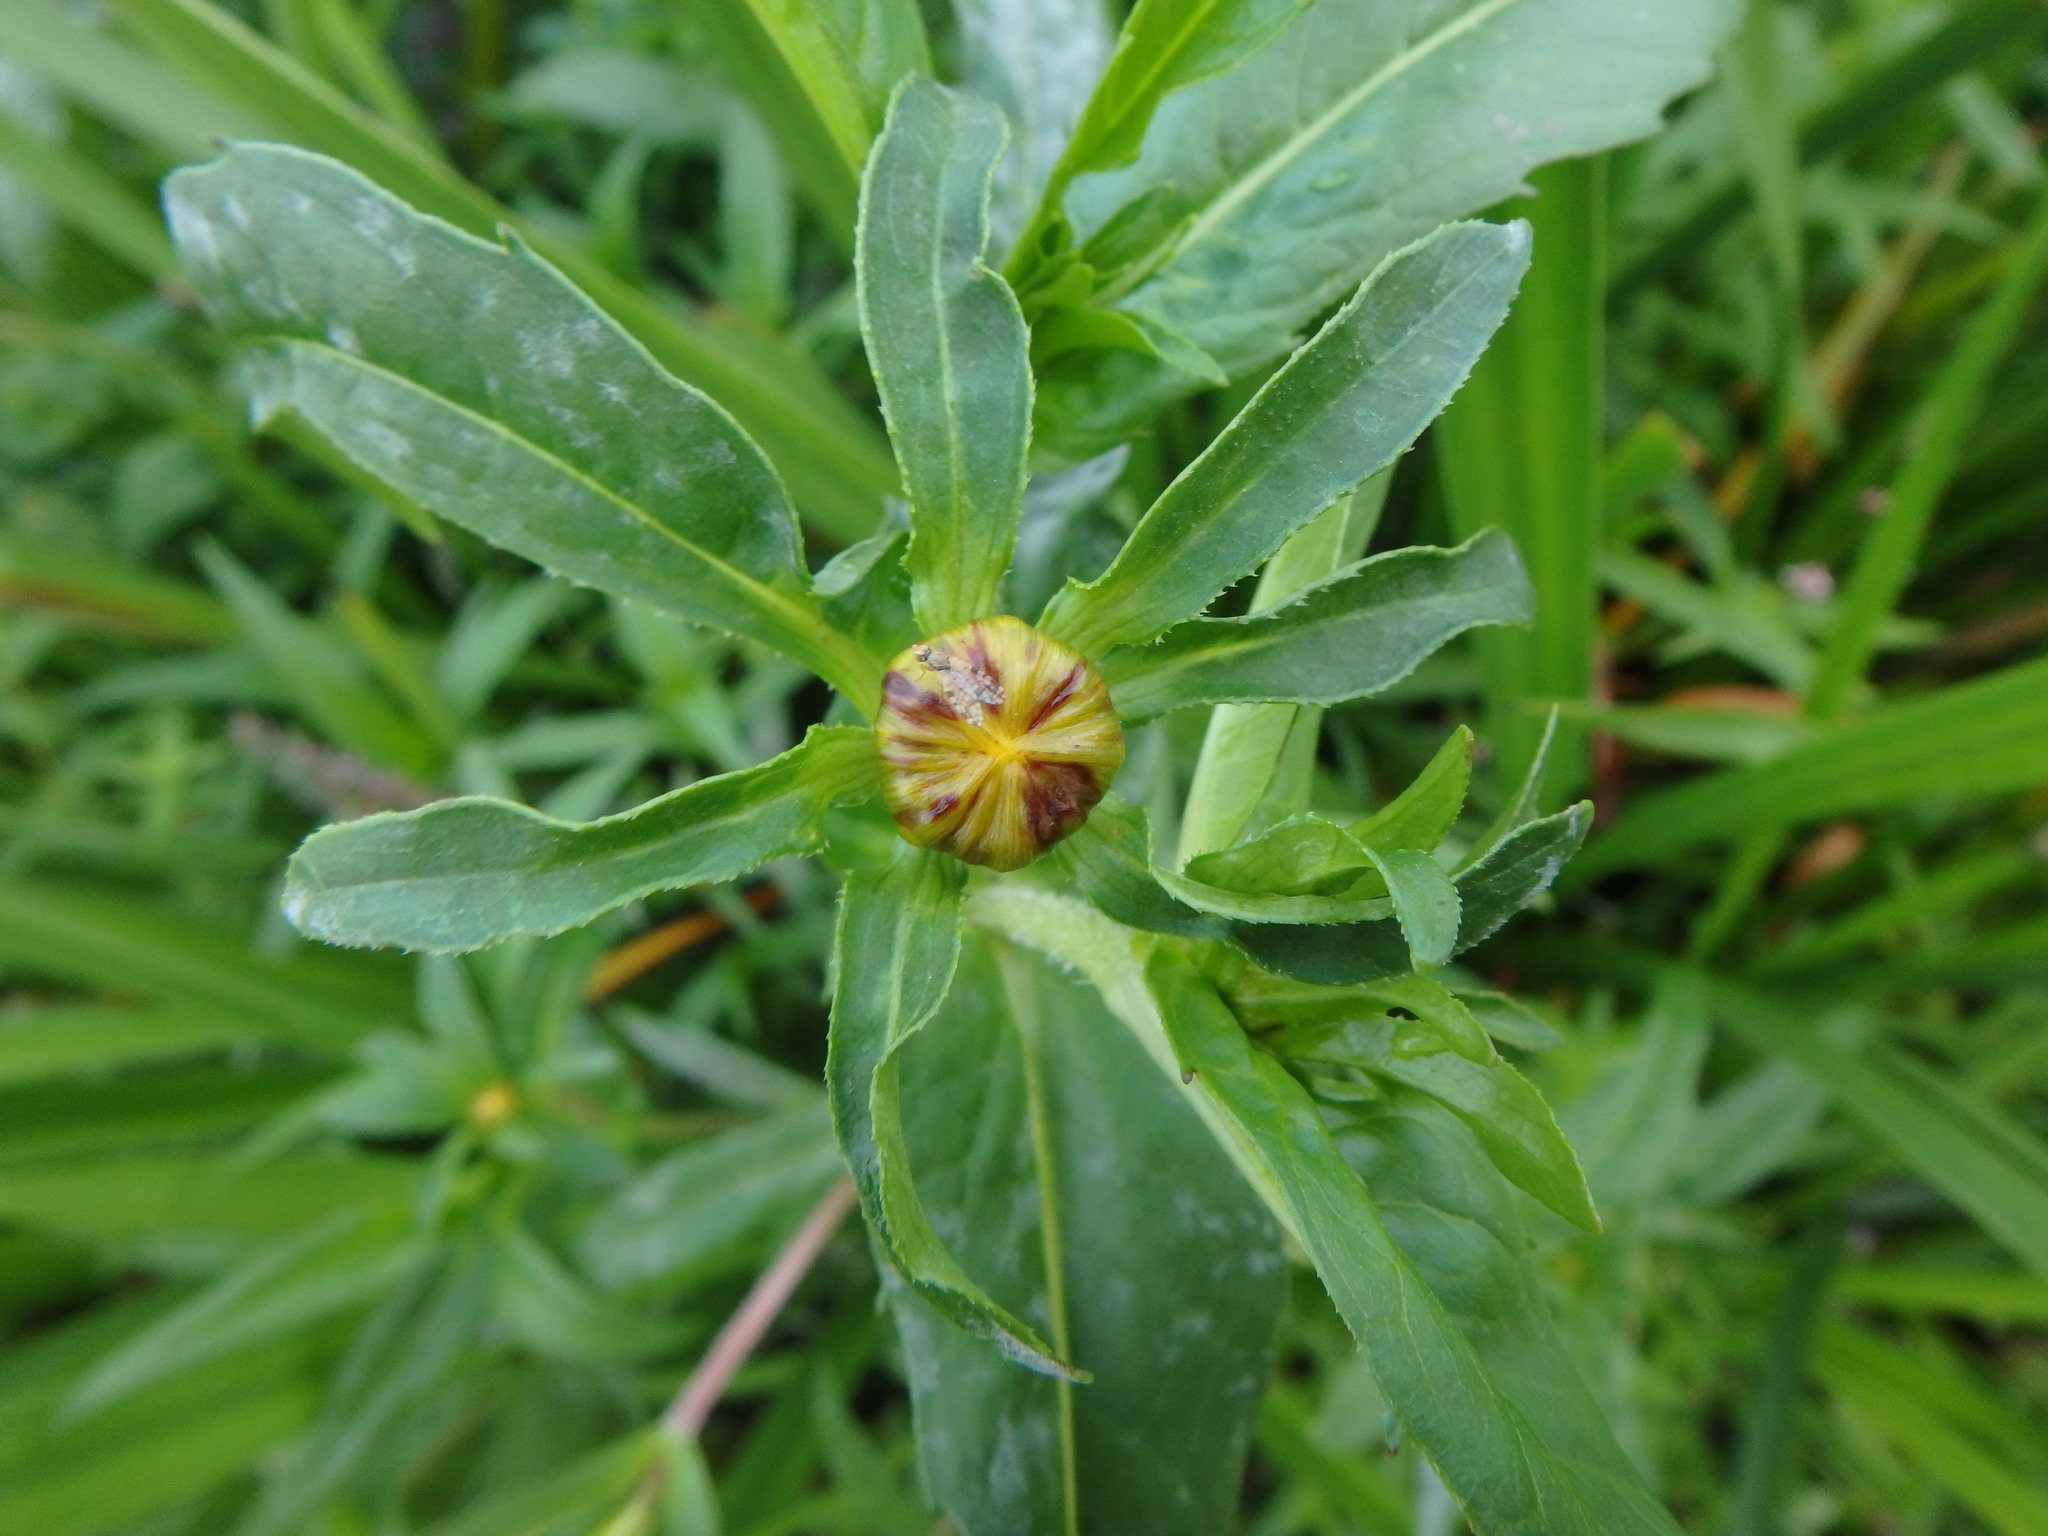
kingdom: Plantae
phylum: Tracheophyta
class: Magnoliopsida
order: Asterales
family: Asteraceae
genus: Bidens
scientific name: Bidens cernua
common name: Nodding bur-marigold
